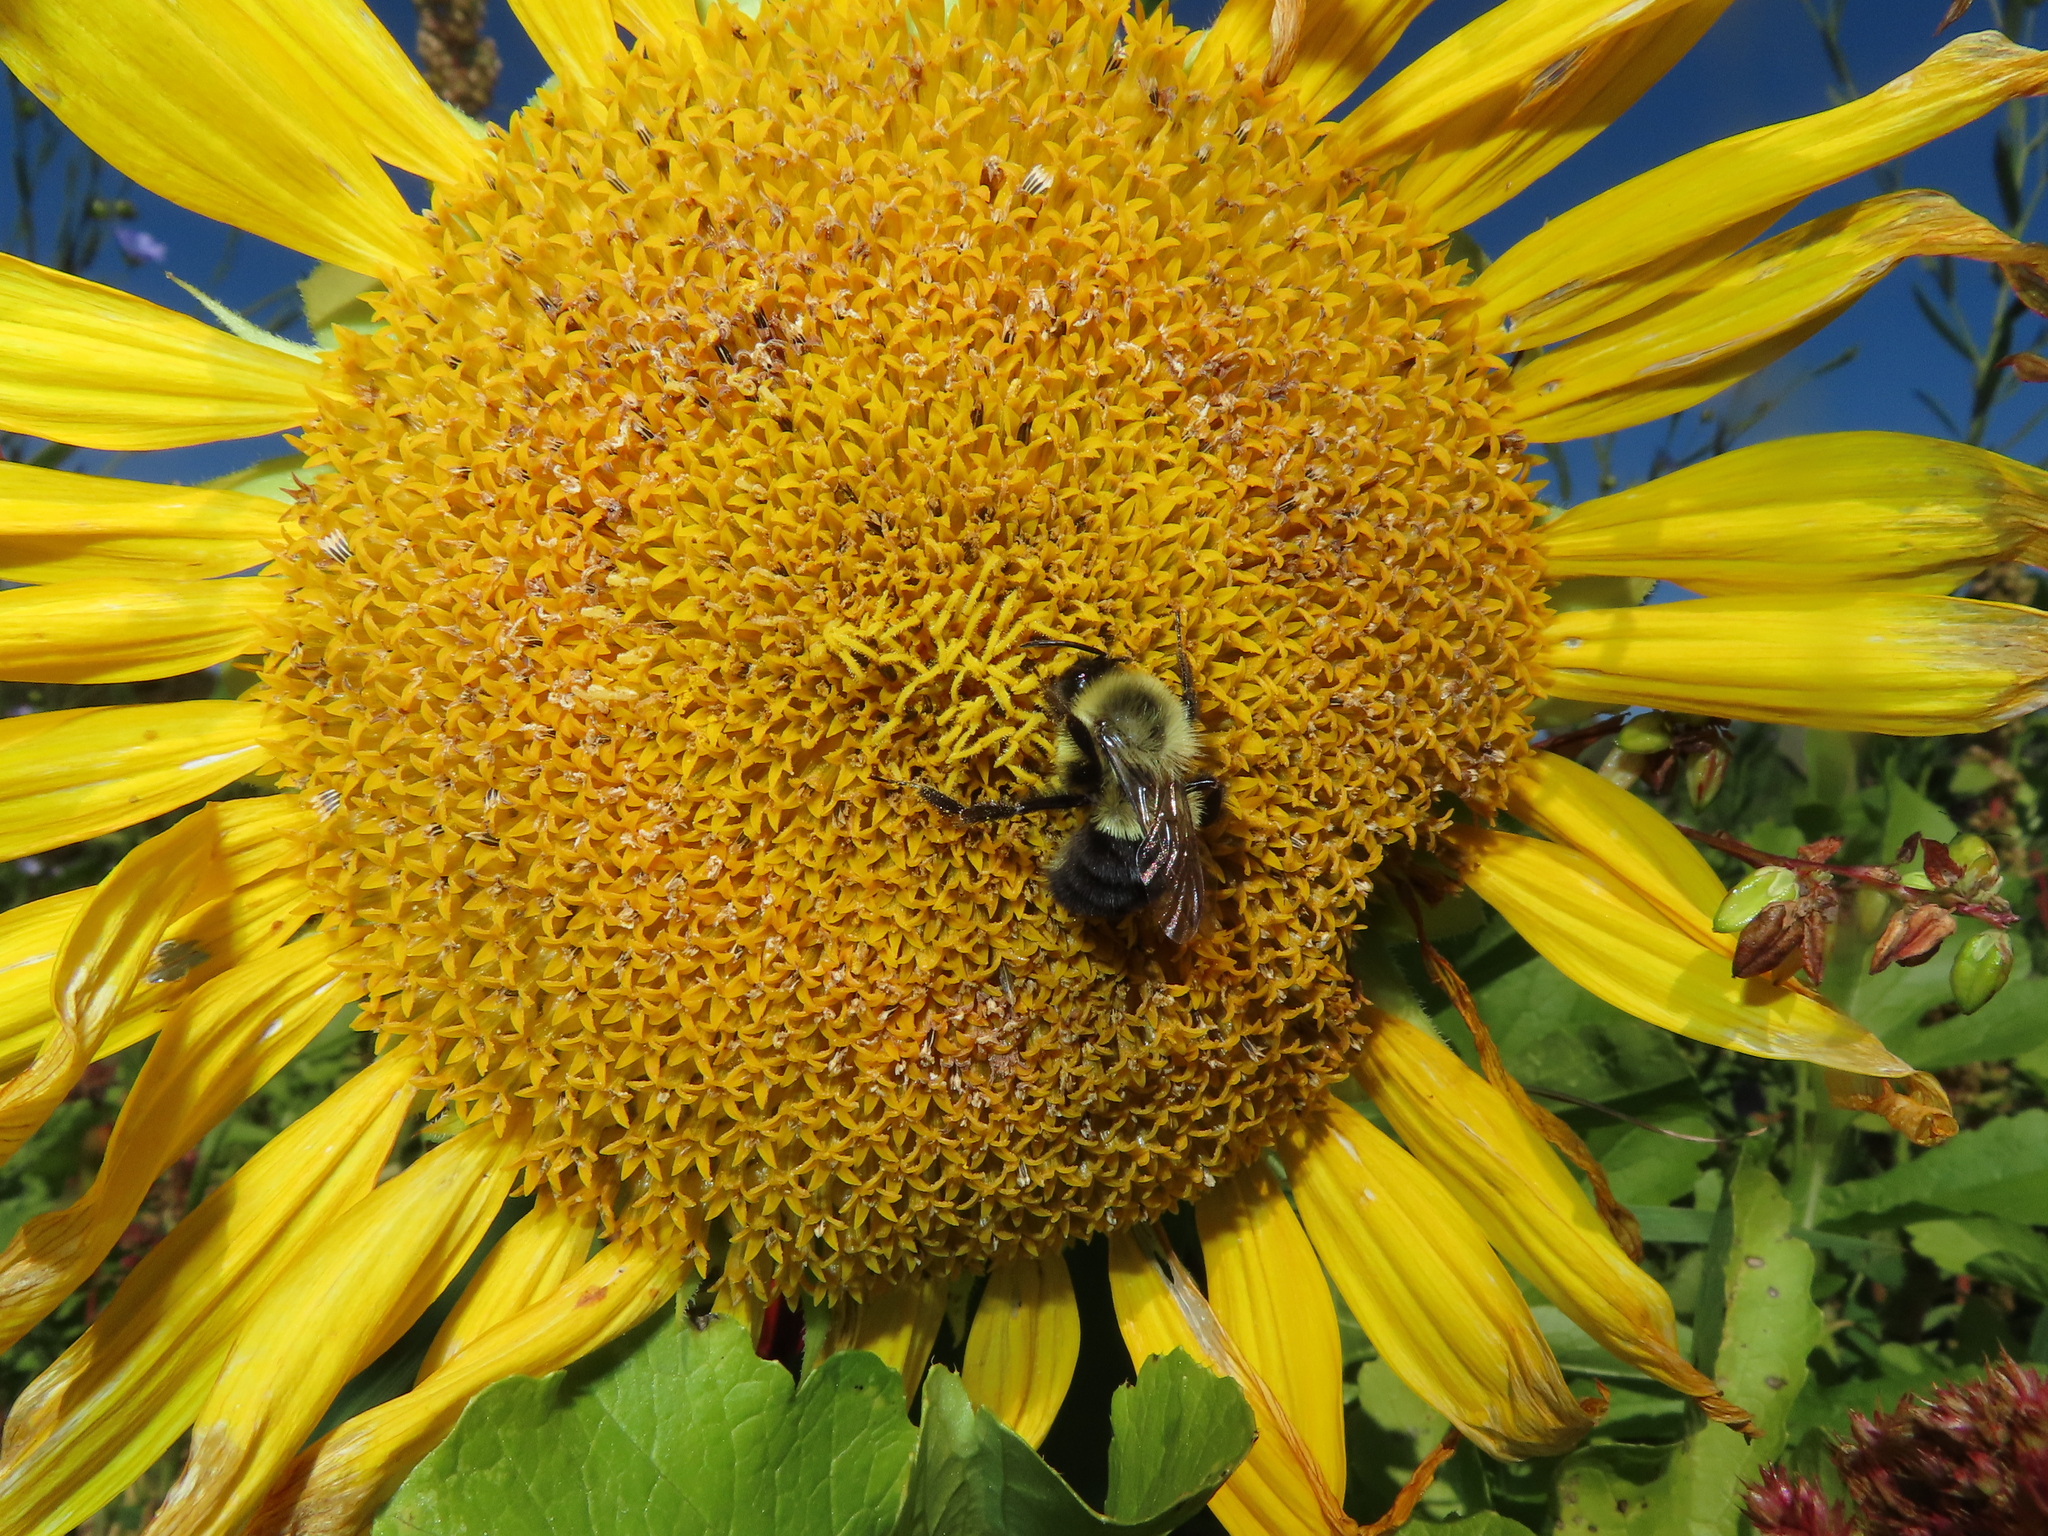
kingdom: Animalia
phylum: Arthropoda
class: Insecta
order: Hymenoptera
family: Apidae
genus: Bombus
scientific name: Bombus impatiens
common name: Common eastern bumble bee
